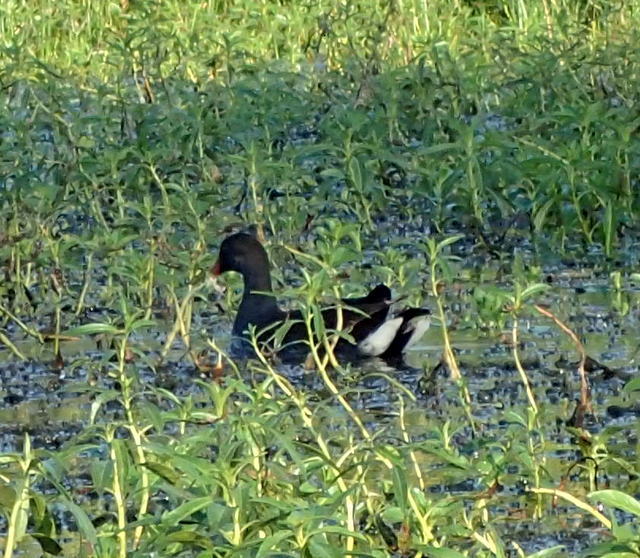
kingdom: Animalia
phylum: Chordata
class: Aves
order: Gruiformes
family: Rallidae
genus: Gallinula
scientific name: Gallinula chloropus
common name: Common moorhen
